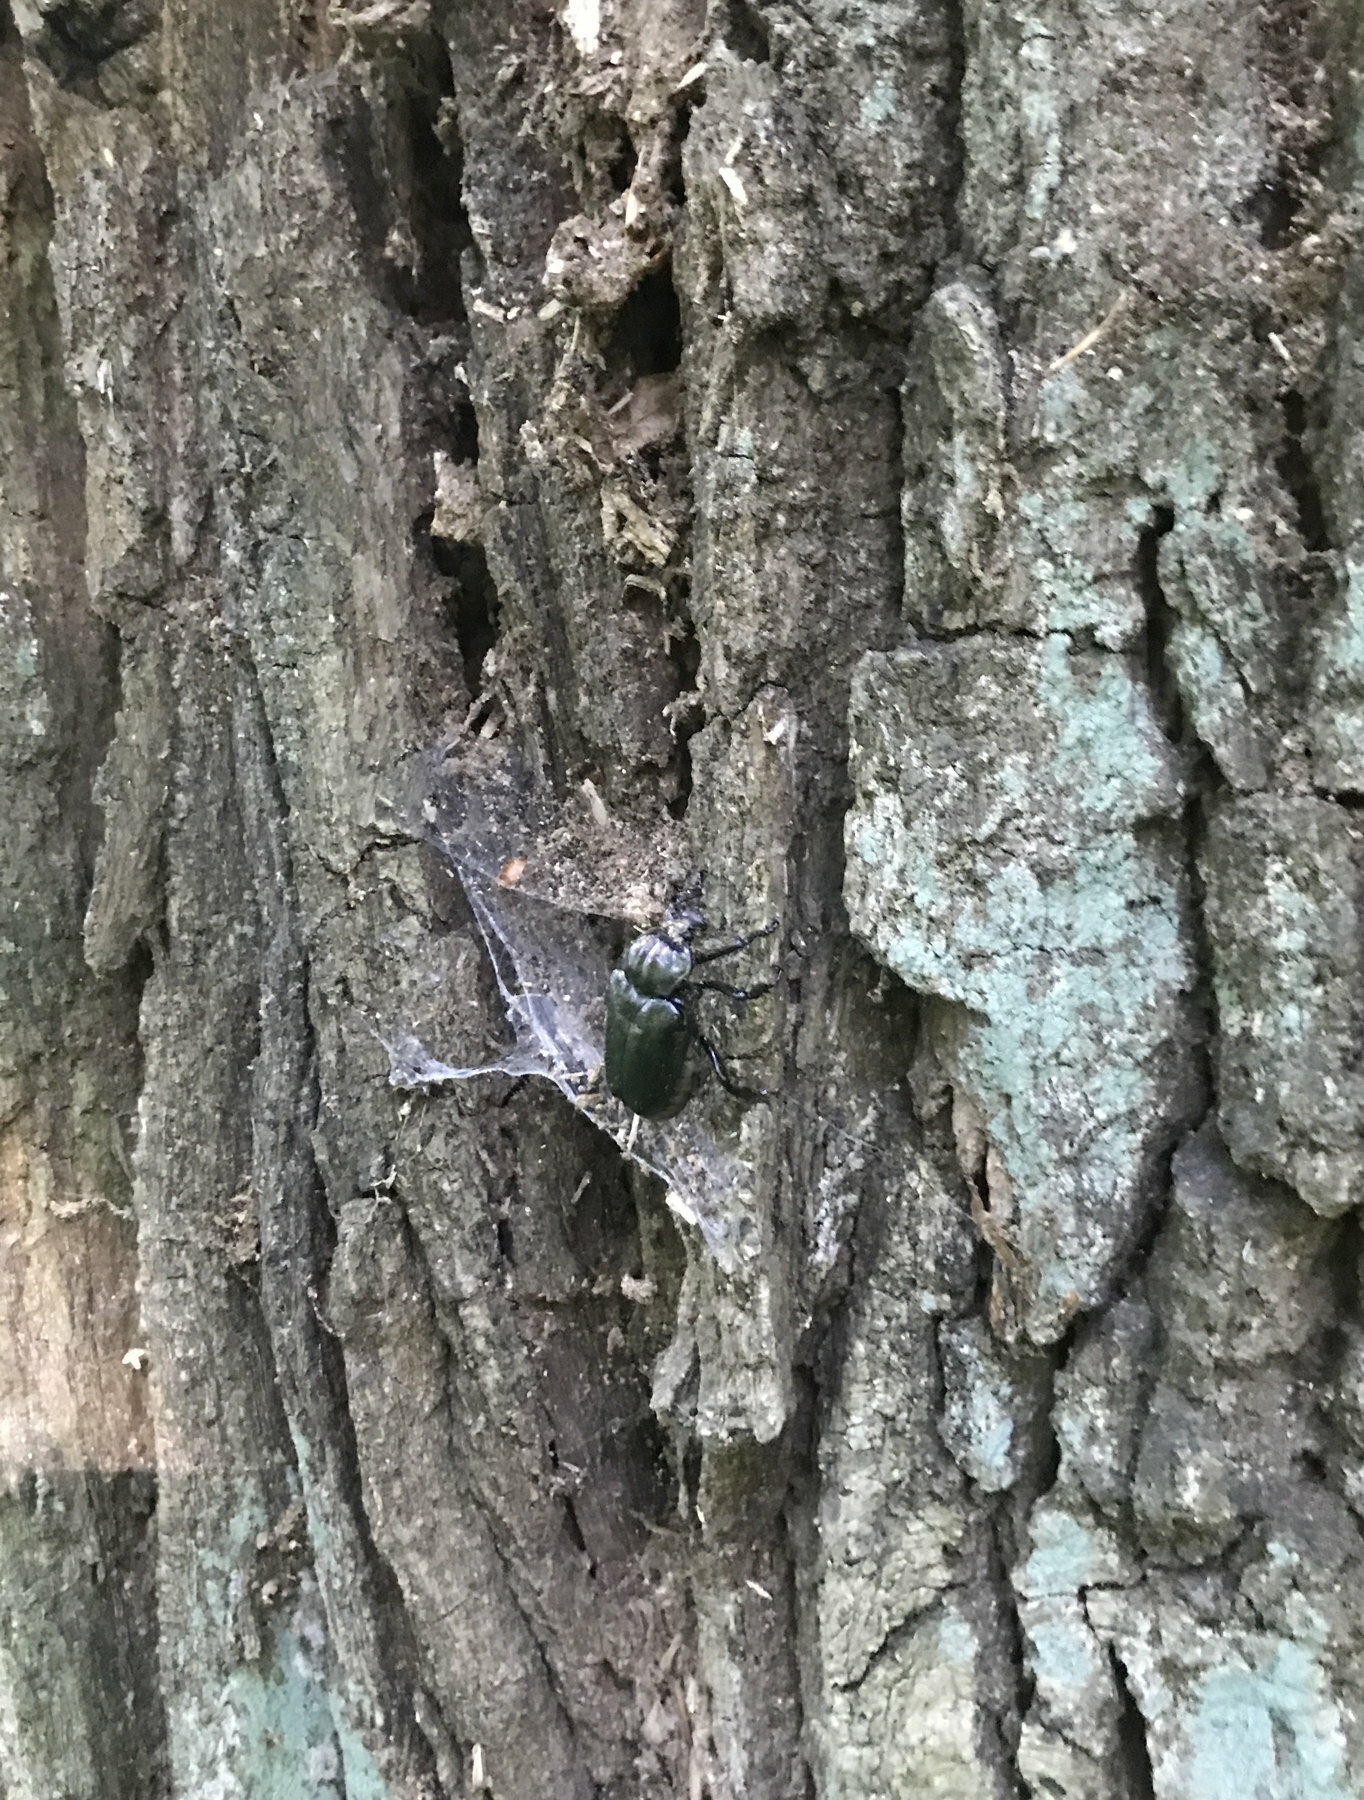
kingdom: Animalia
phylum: Arthropoda
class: Insecta
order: Coleoptera
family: Scarabaeidae
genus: Osmoderma
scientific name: Osmoderma barnabita
